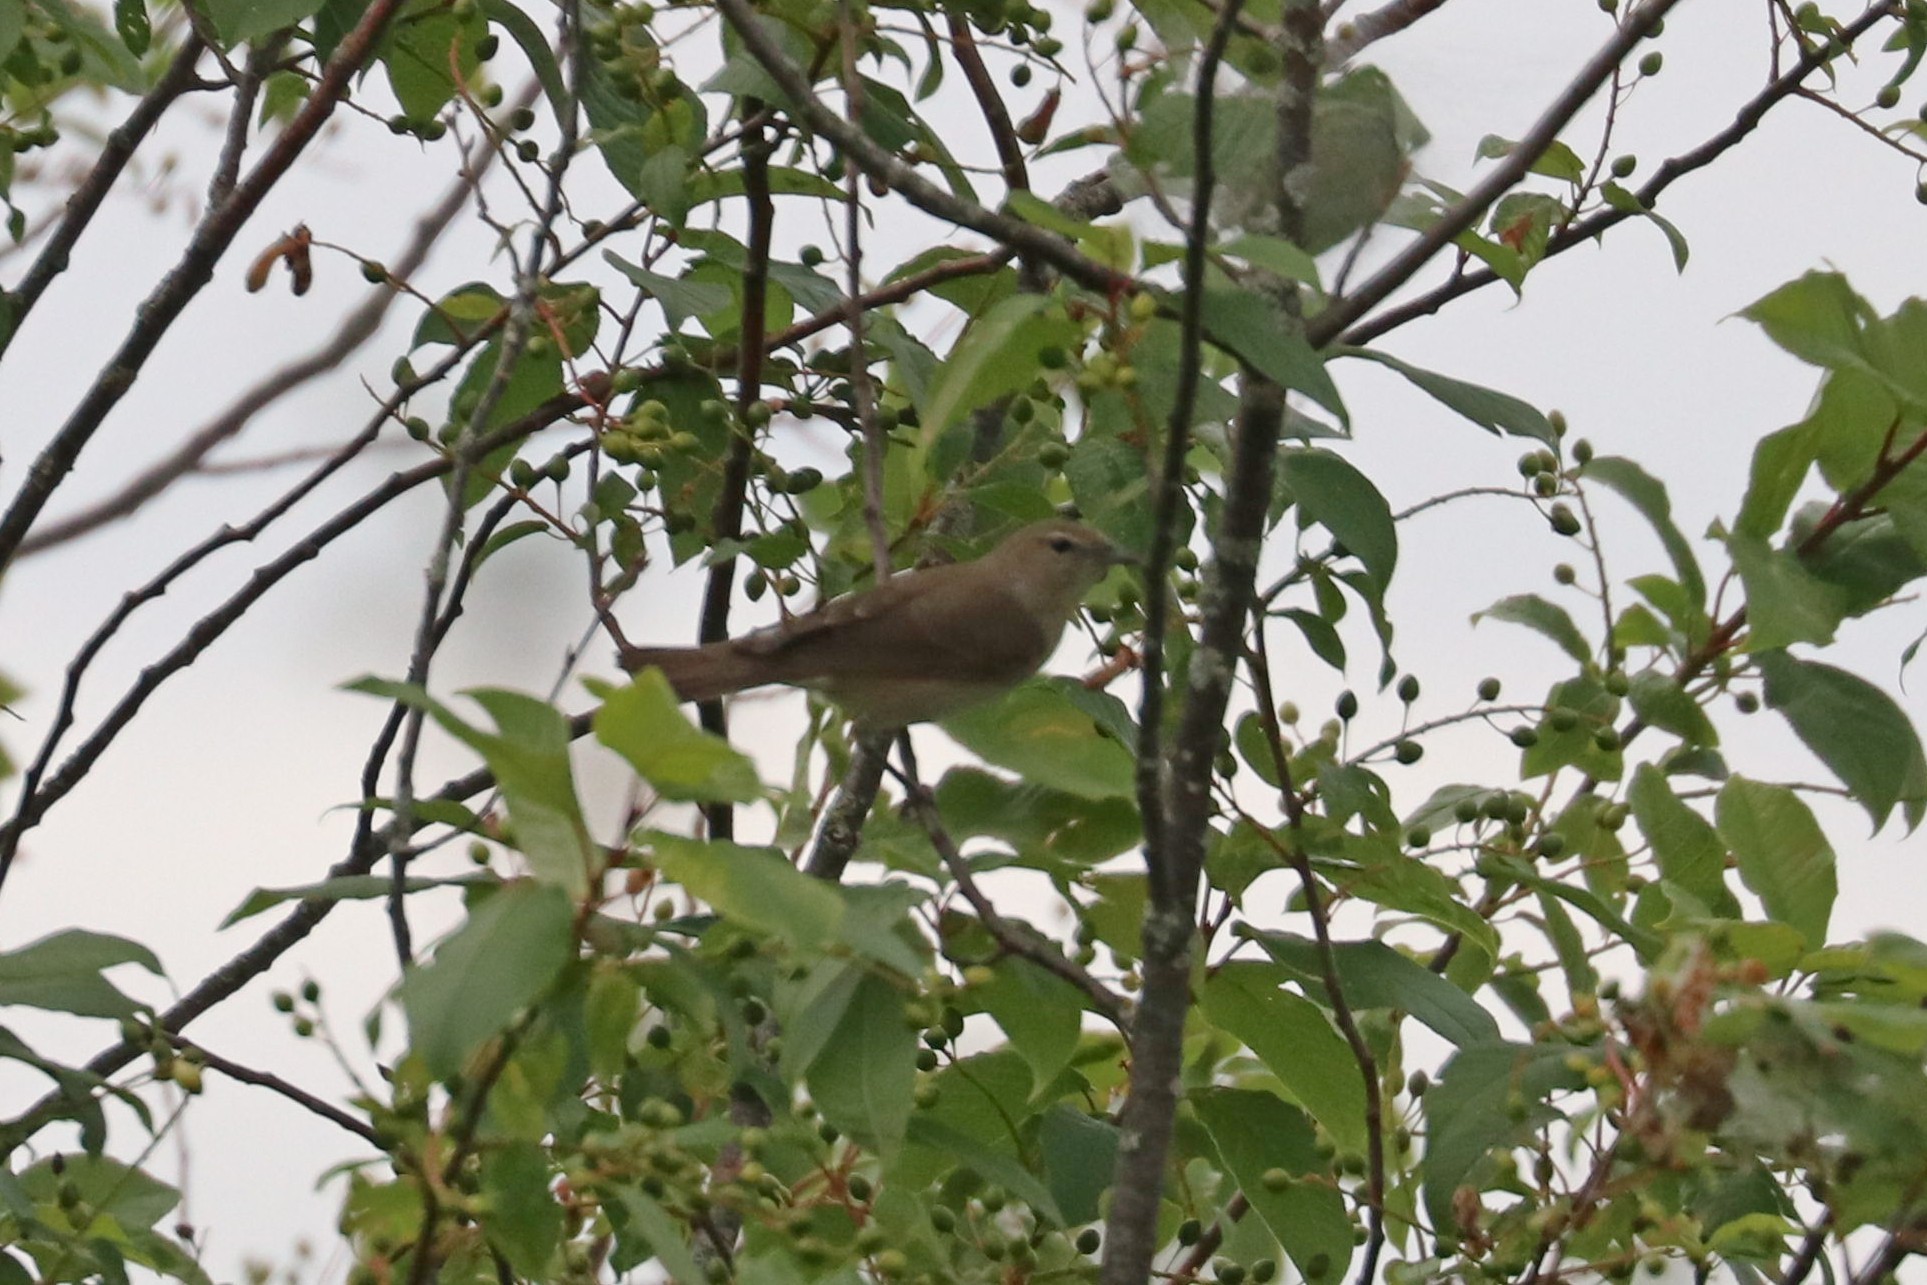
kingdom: Animalia
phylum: Chordata
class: Aves
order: Passeriformes
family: Sylviidae
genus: Sylvia
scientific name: Sylvia borin
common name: Garden warbler
